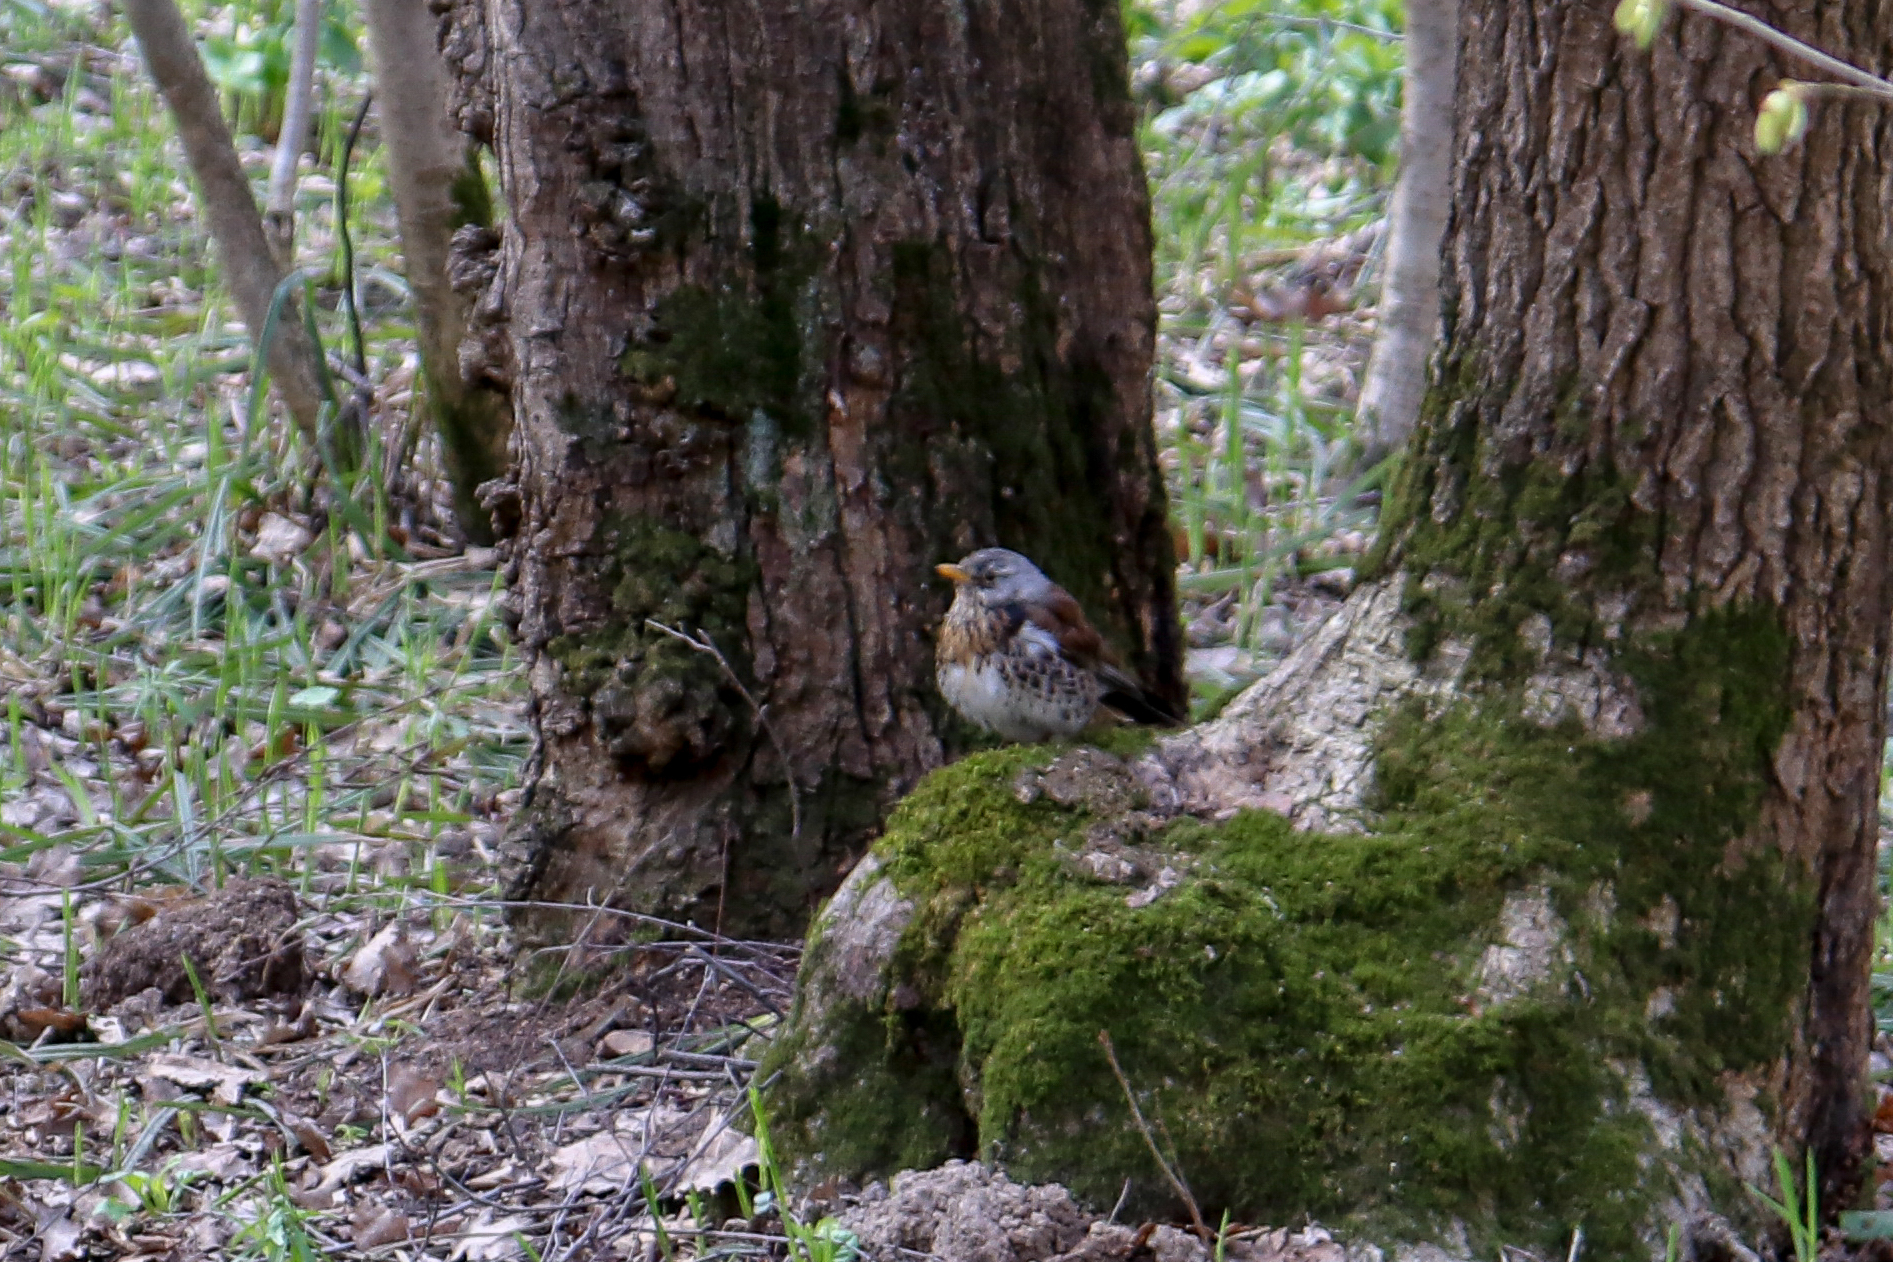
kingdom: Animalia
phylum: Chordata
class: Aves
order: Passeriformes
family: Turdidae
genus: Turdus
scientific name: Turdus pilaris
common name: Fieldfare
